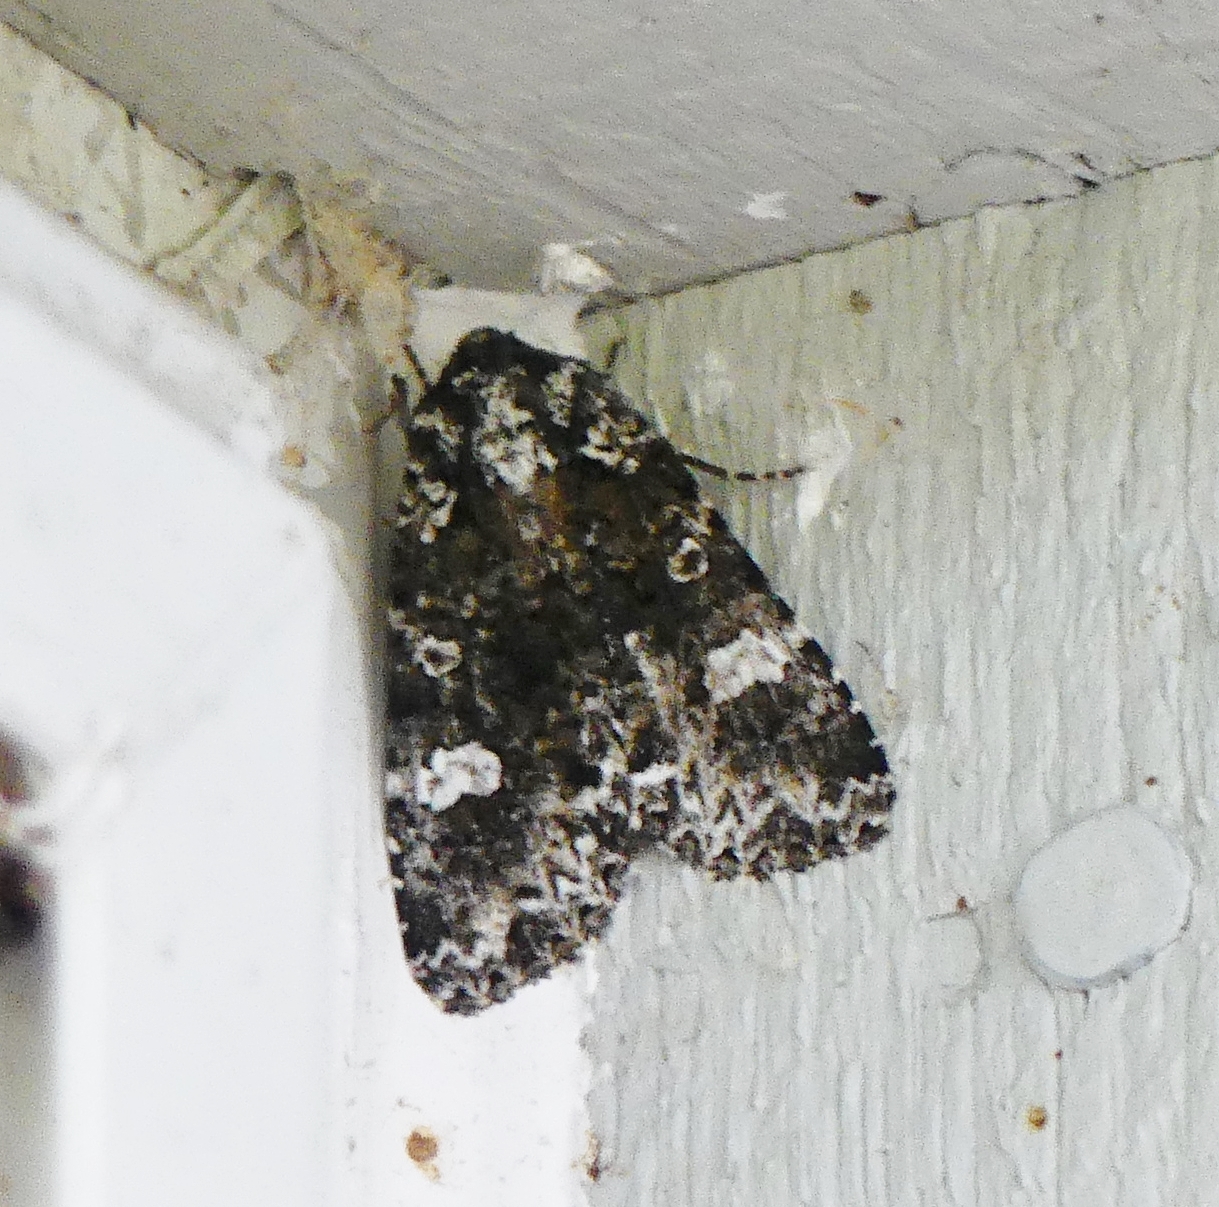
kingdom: Animalia
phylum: Arthropoda
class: Insecta
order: Lepidoptera
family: Noctuidae
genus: Melanchra
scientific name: Melanchra adjuncta
